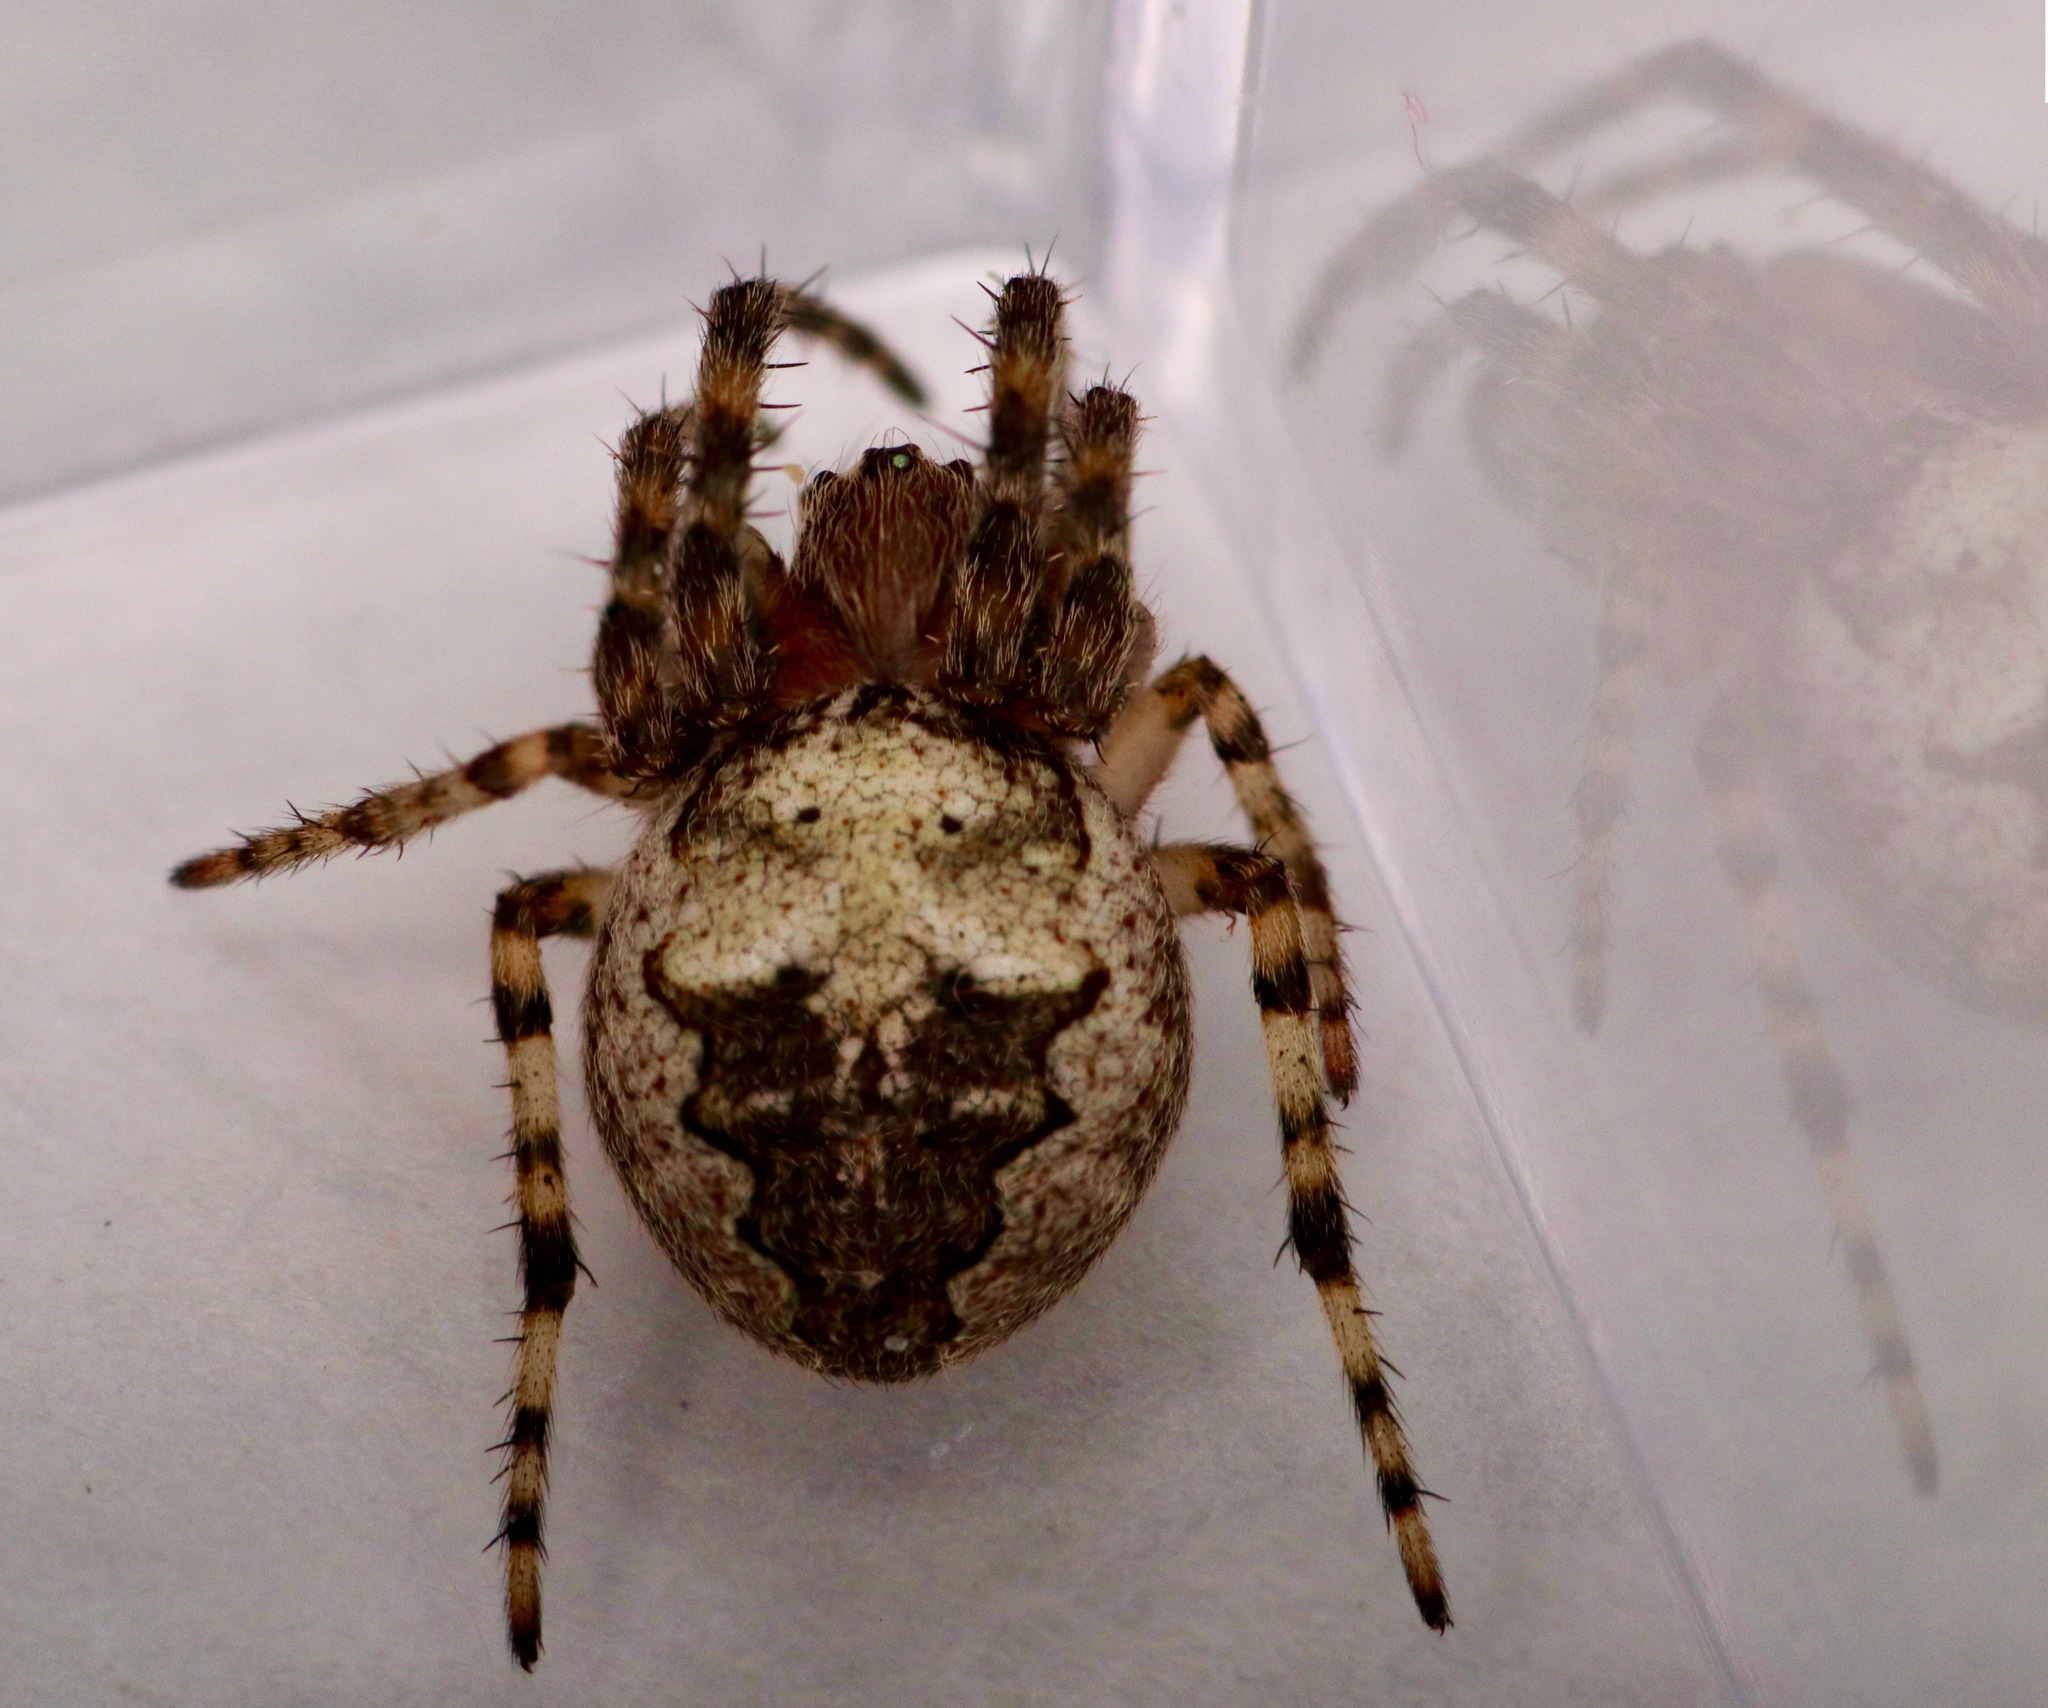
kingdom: Animalia
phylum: Arthropoda
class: Arachnida
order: Araneae
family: Araneidae
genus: Larinioides
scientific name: Larinioides patagiatus
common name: Ornamental orbweaver
